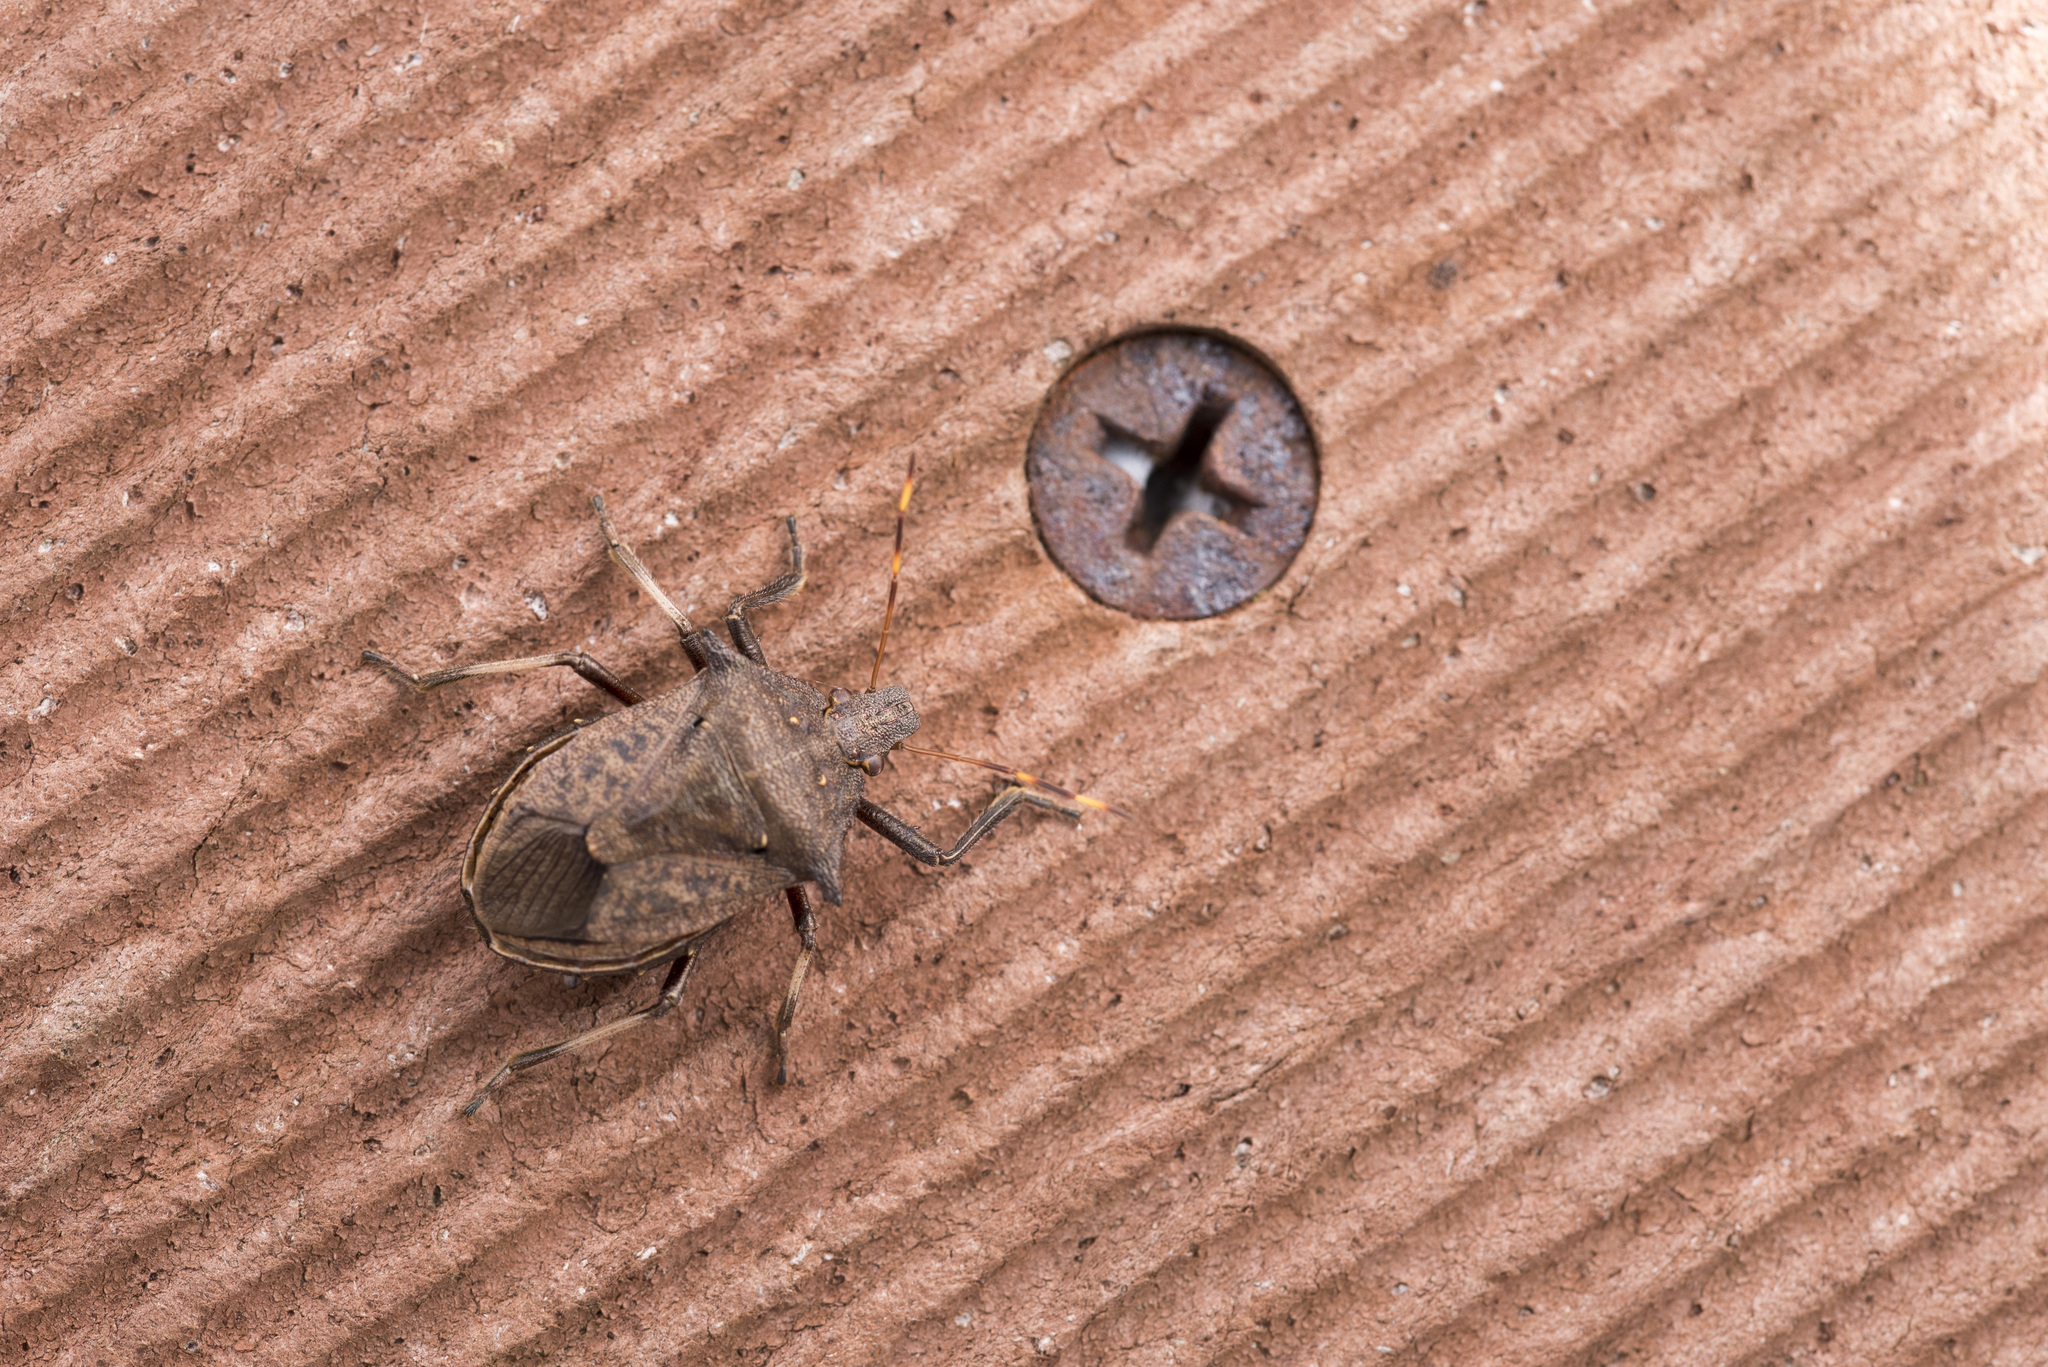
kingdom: Animalia
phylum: Arthropoda
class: Insecta
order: Hemiptera
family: Pentatomidae
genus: Picromerus
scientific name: Picromerus griseus
